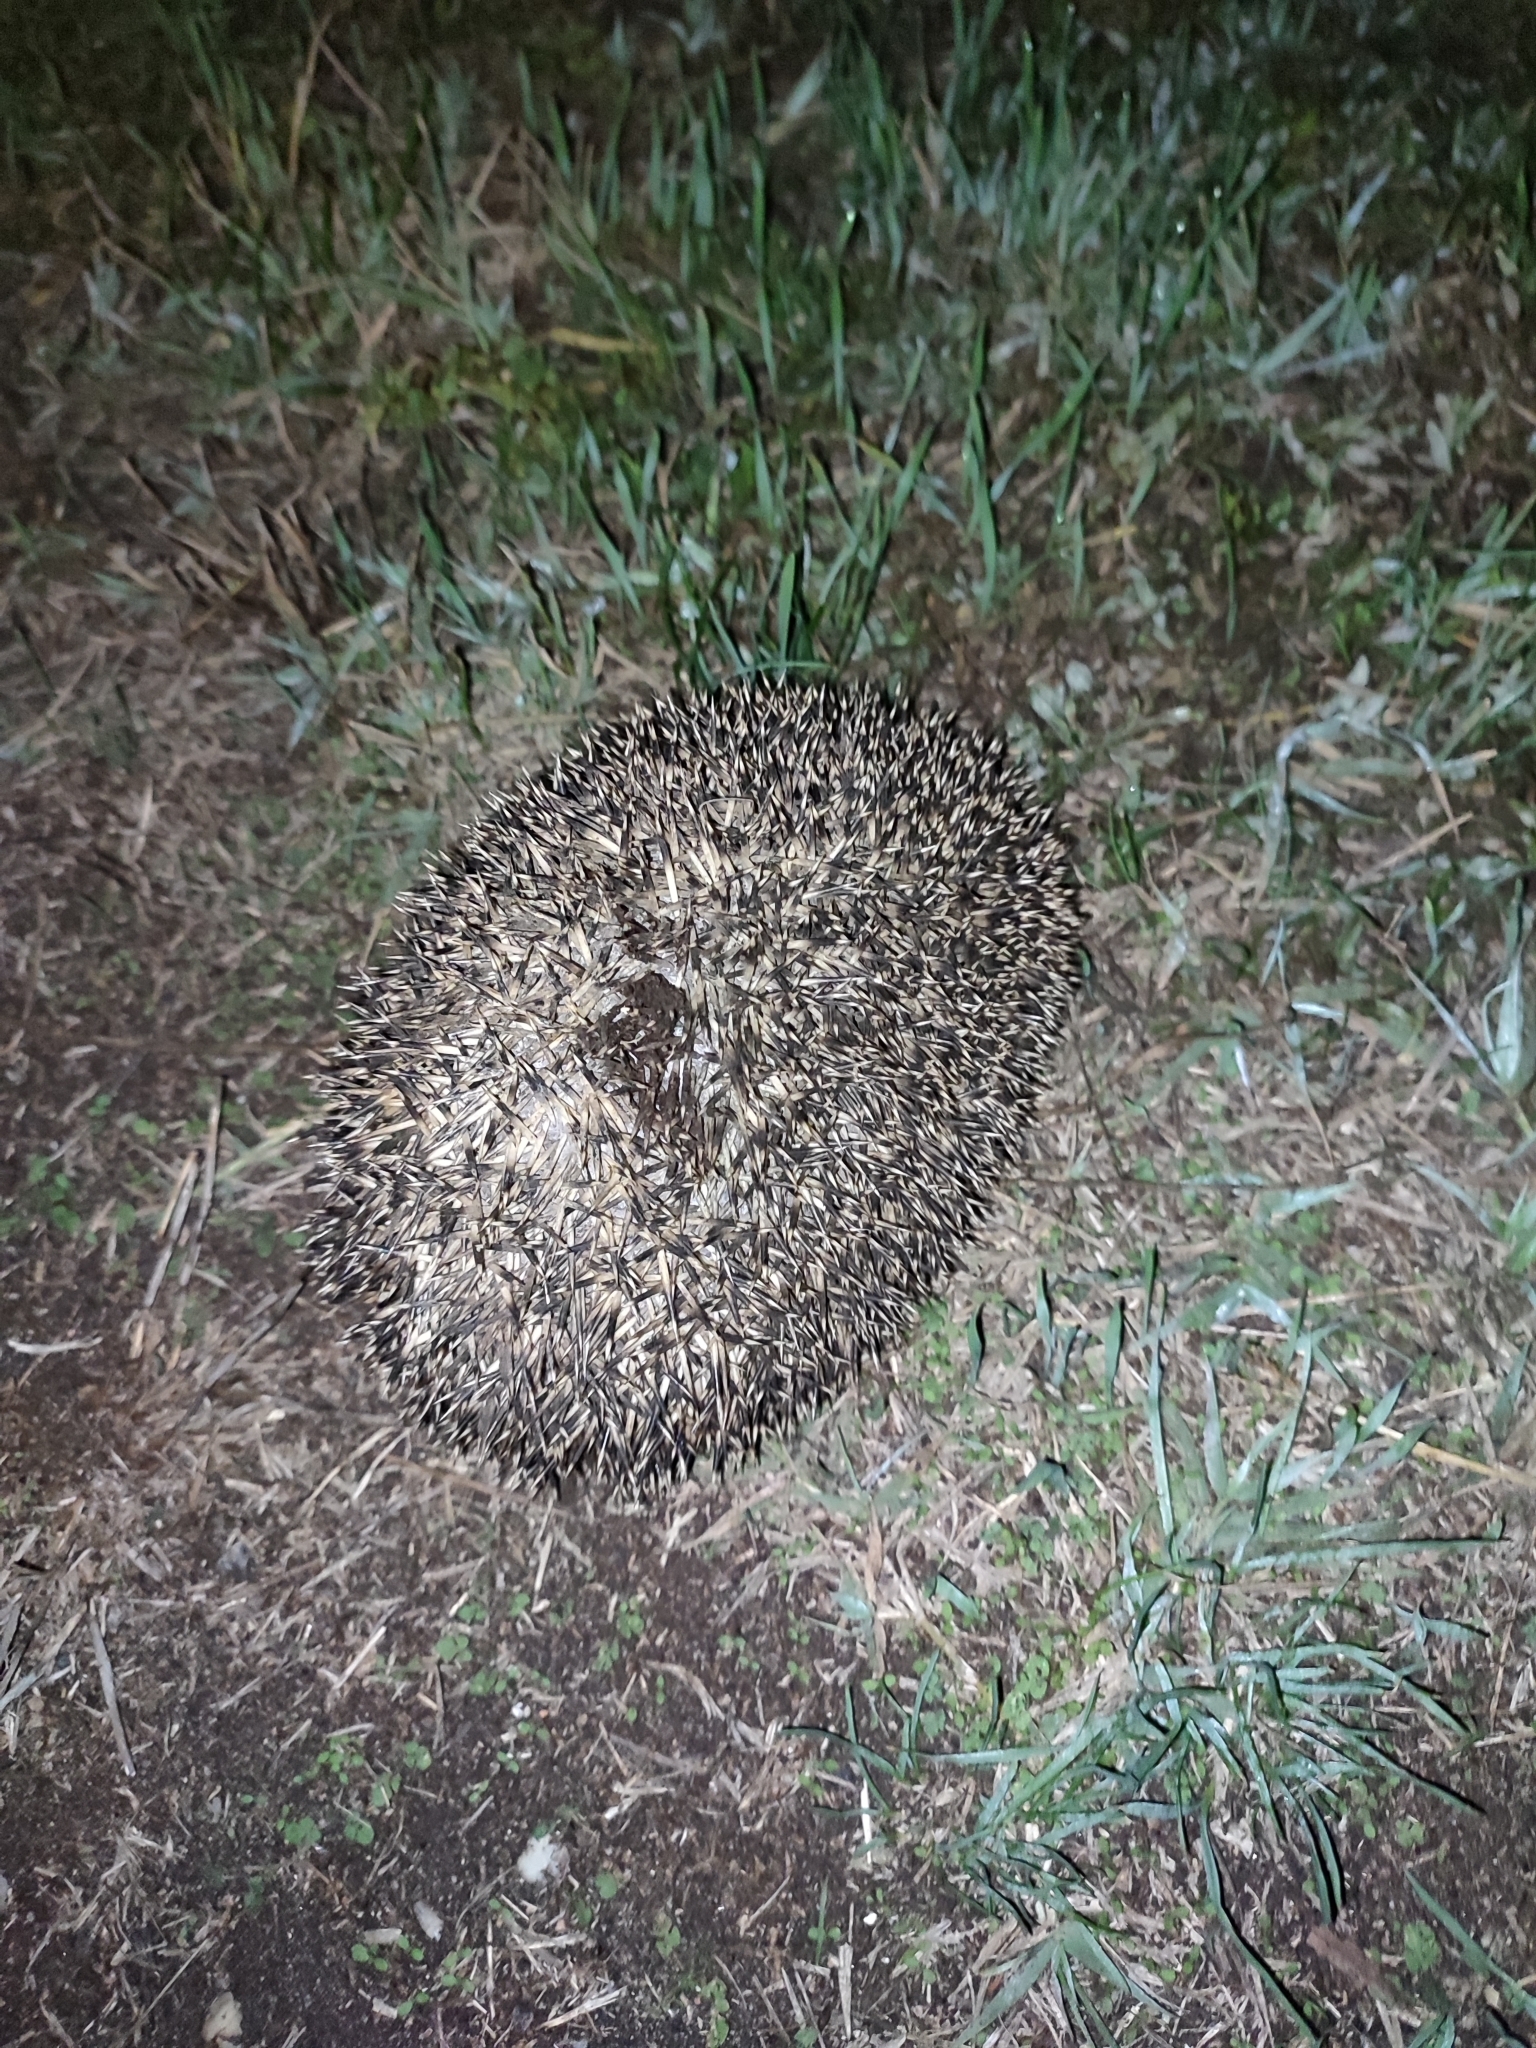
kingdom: Animalia
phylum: Chordata
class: Mammalia
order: Erinaceomorpha
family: Erinaceidae
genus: Erinaceus
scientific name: Erinaceus europaeus
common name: West european hedgehog
